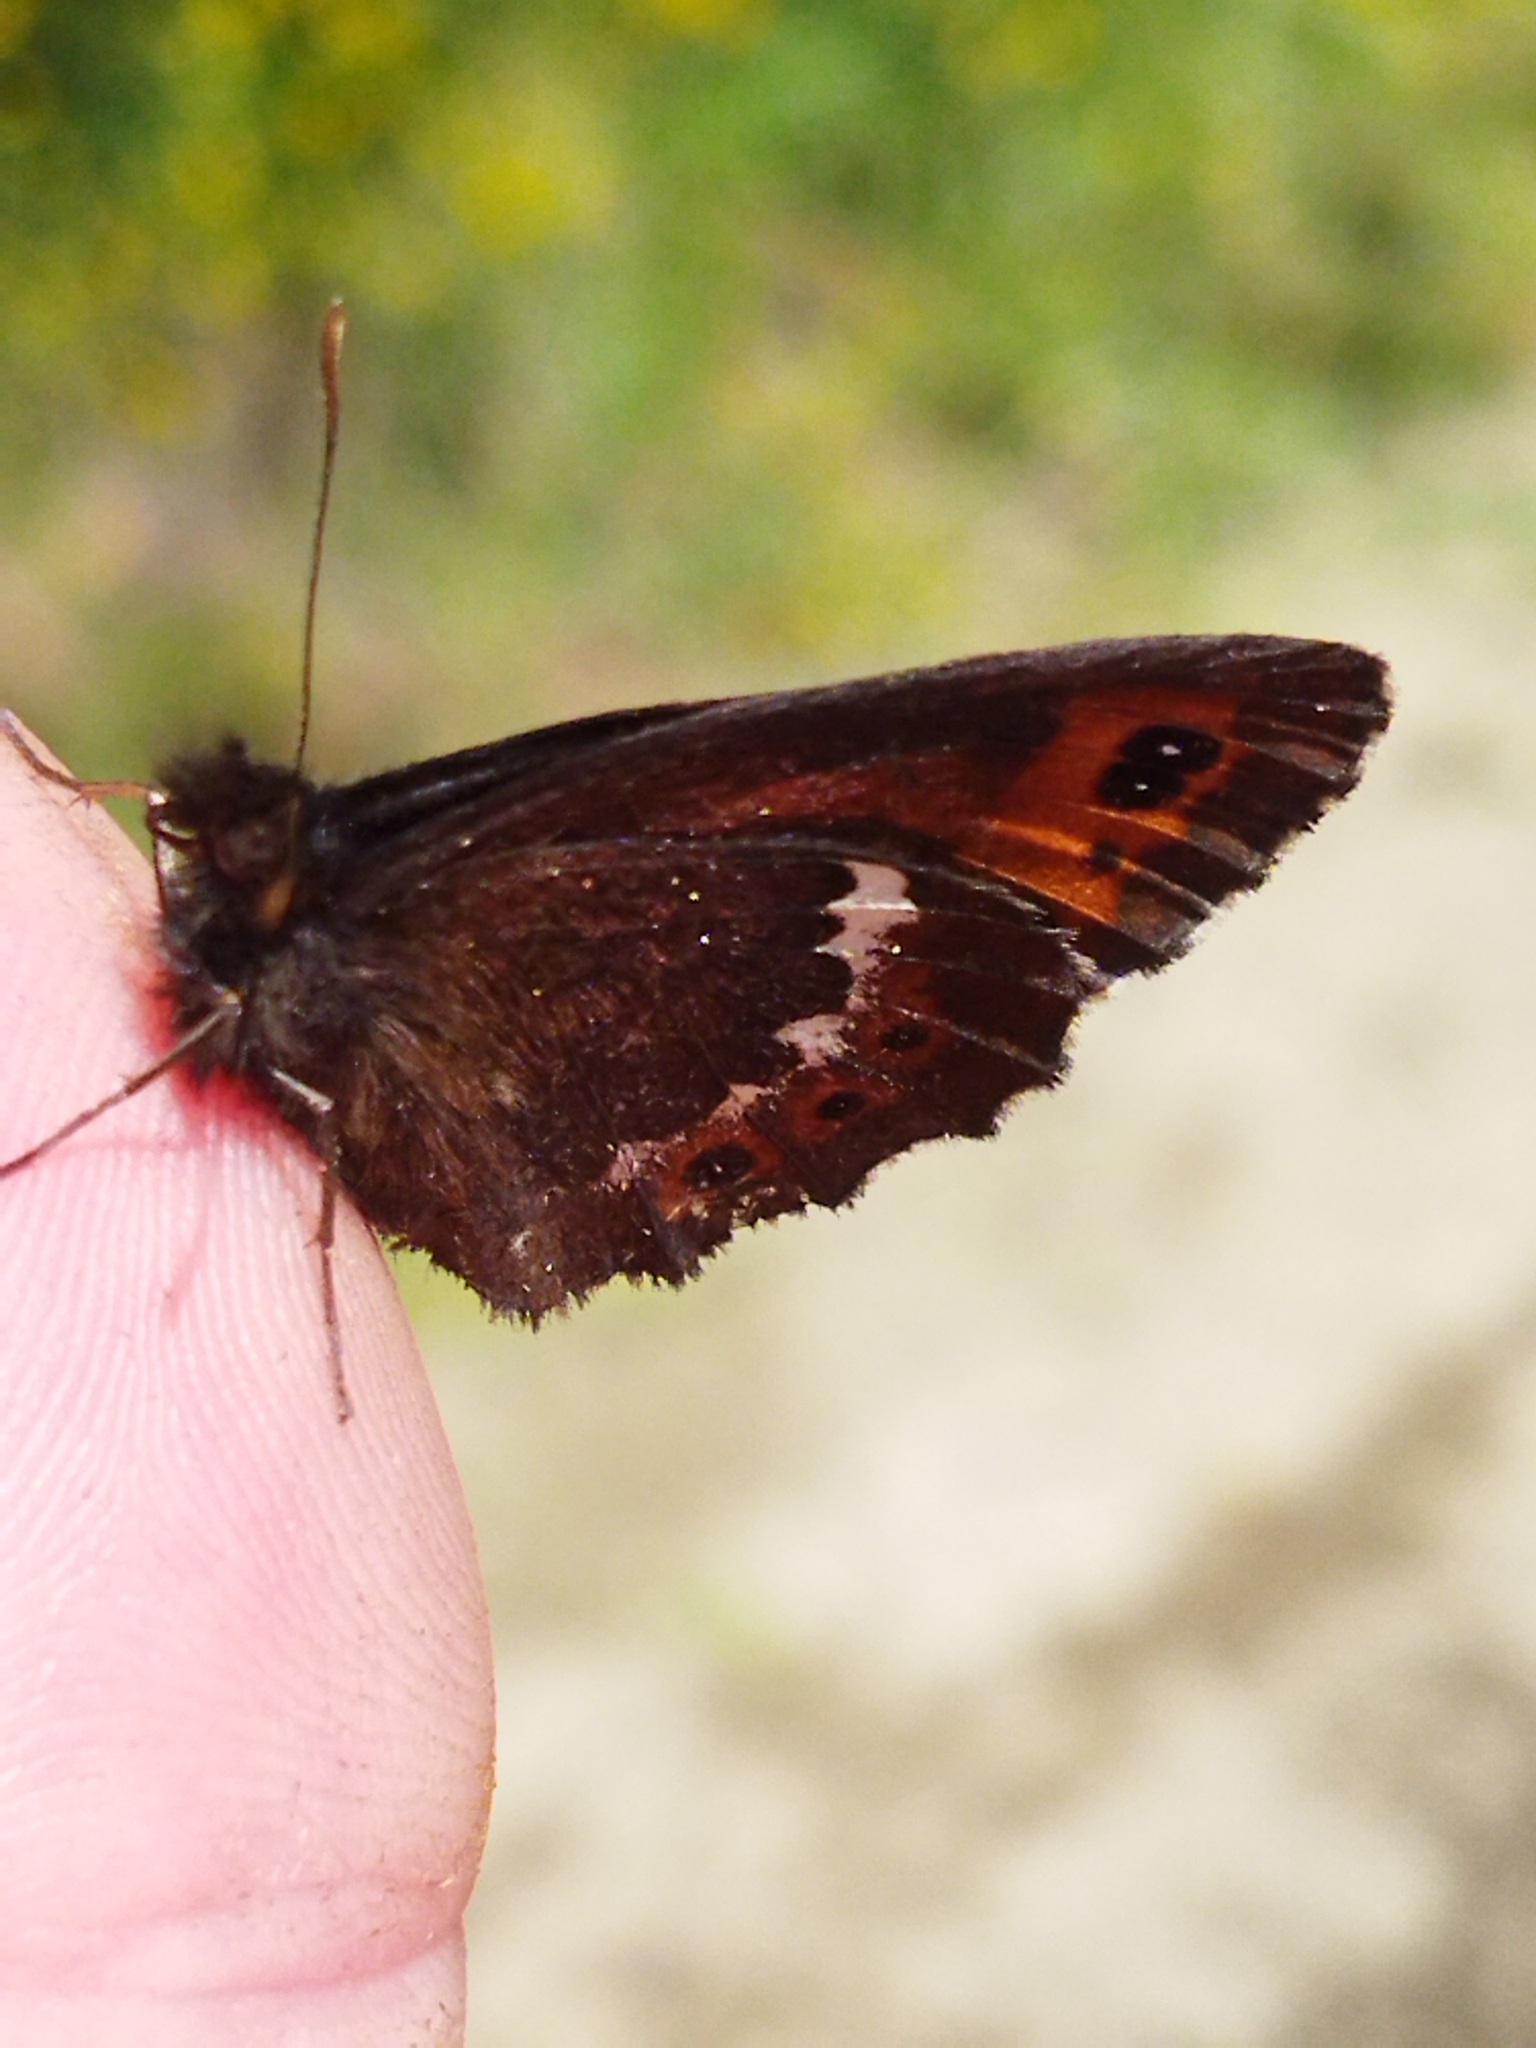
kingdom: Animalia
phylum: Arthropoda
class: Insecta
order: Lepidoptera
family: Nymphalidae
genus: Erebia
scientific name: Erebia ligea
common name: Arran brown
